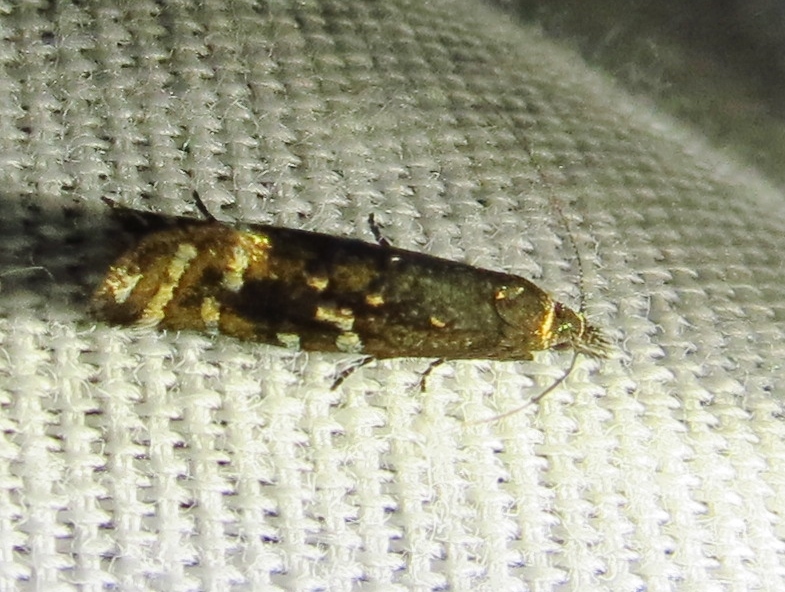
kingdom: Animalia
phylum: Arthropoda
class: Insecta
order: Lepidoptera
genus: Drymoana
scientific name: Drymoana
